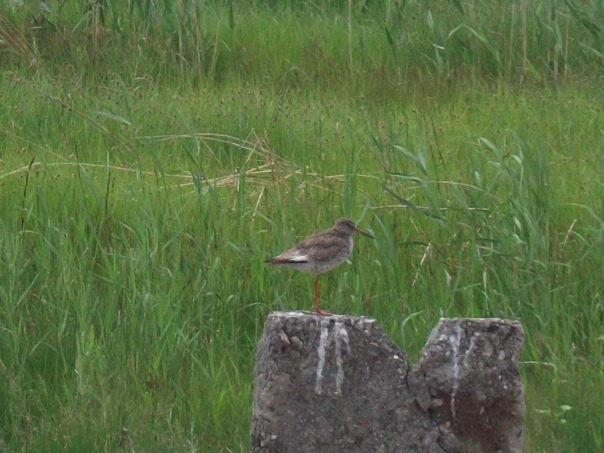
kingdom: Animalia
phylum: Chordata
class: Aves
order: Charadriiformes
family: Scolopacidae
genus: Tringa
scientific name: Tringa totanus
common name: Common redshank
